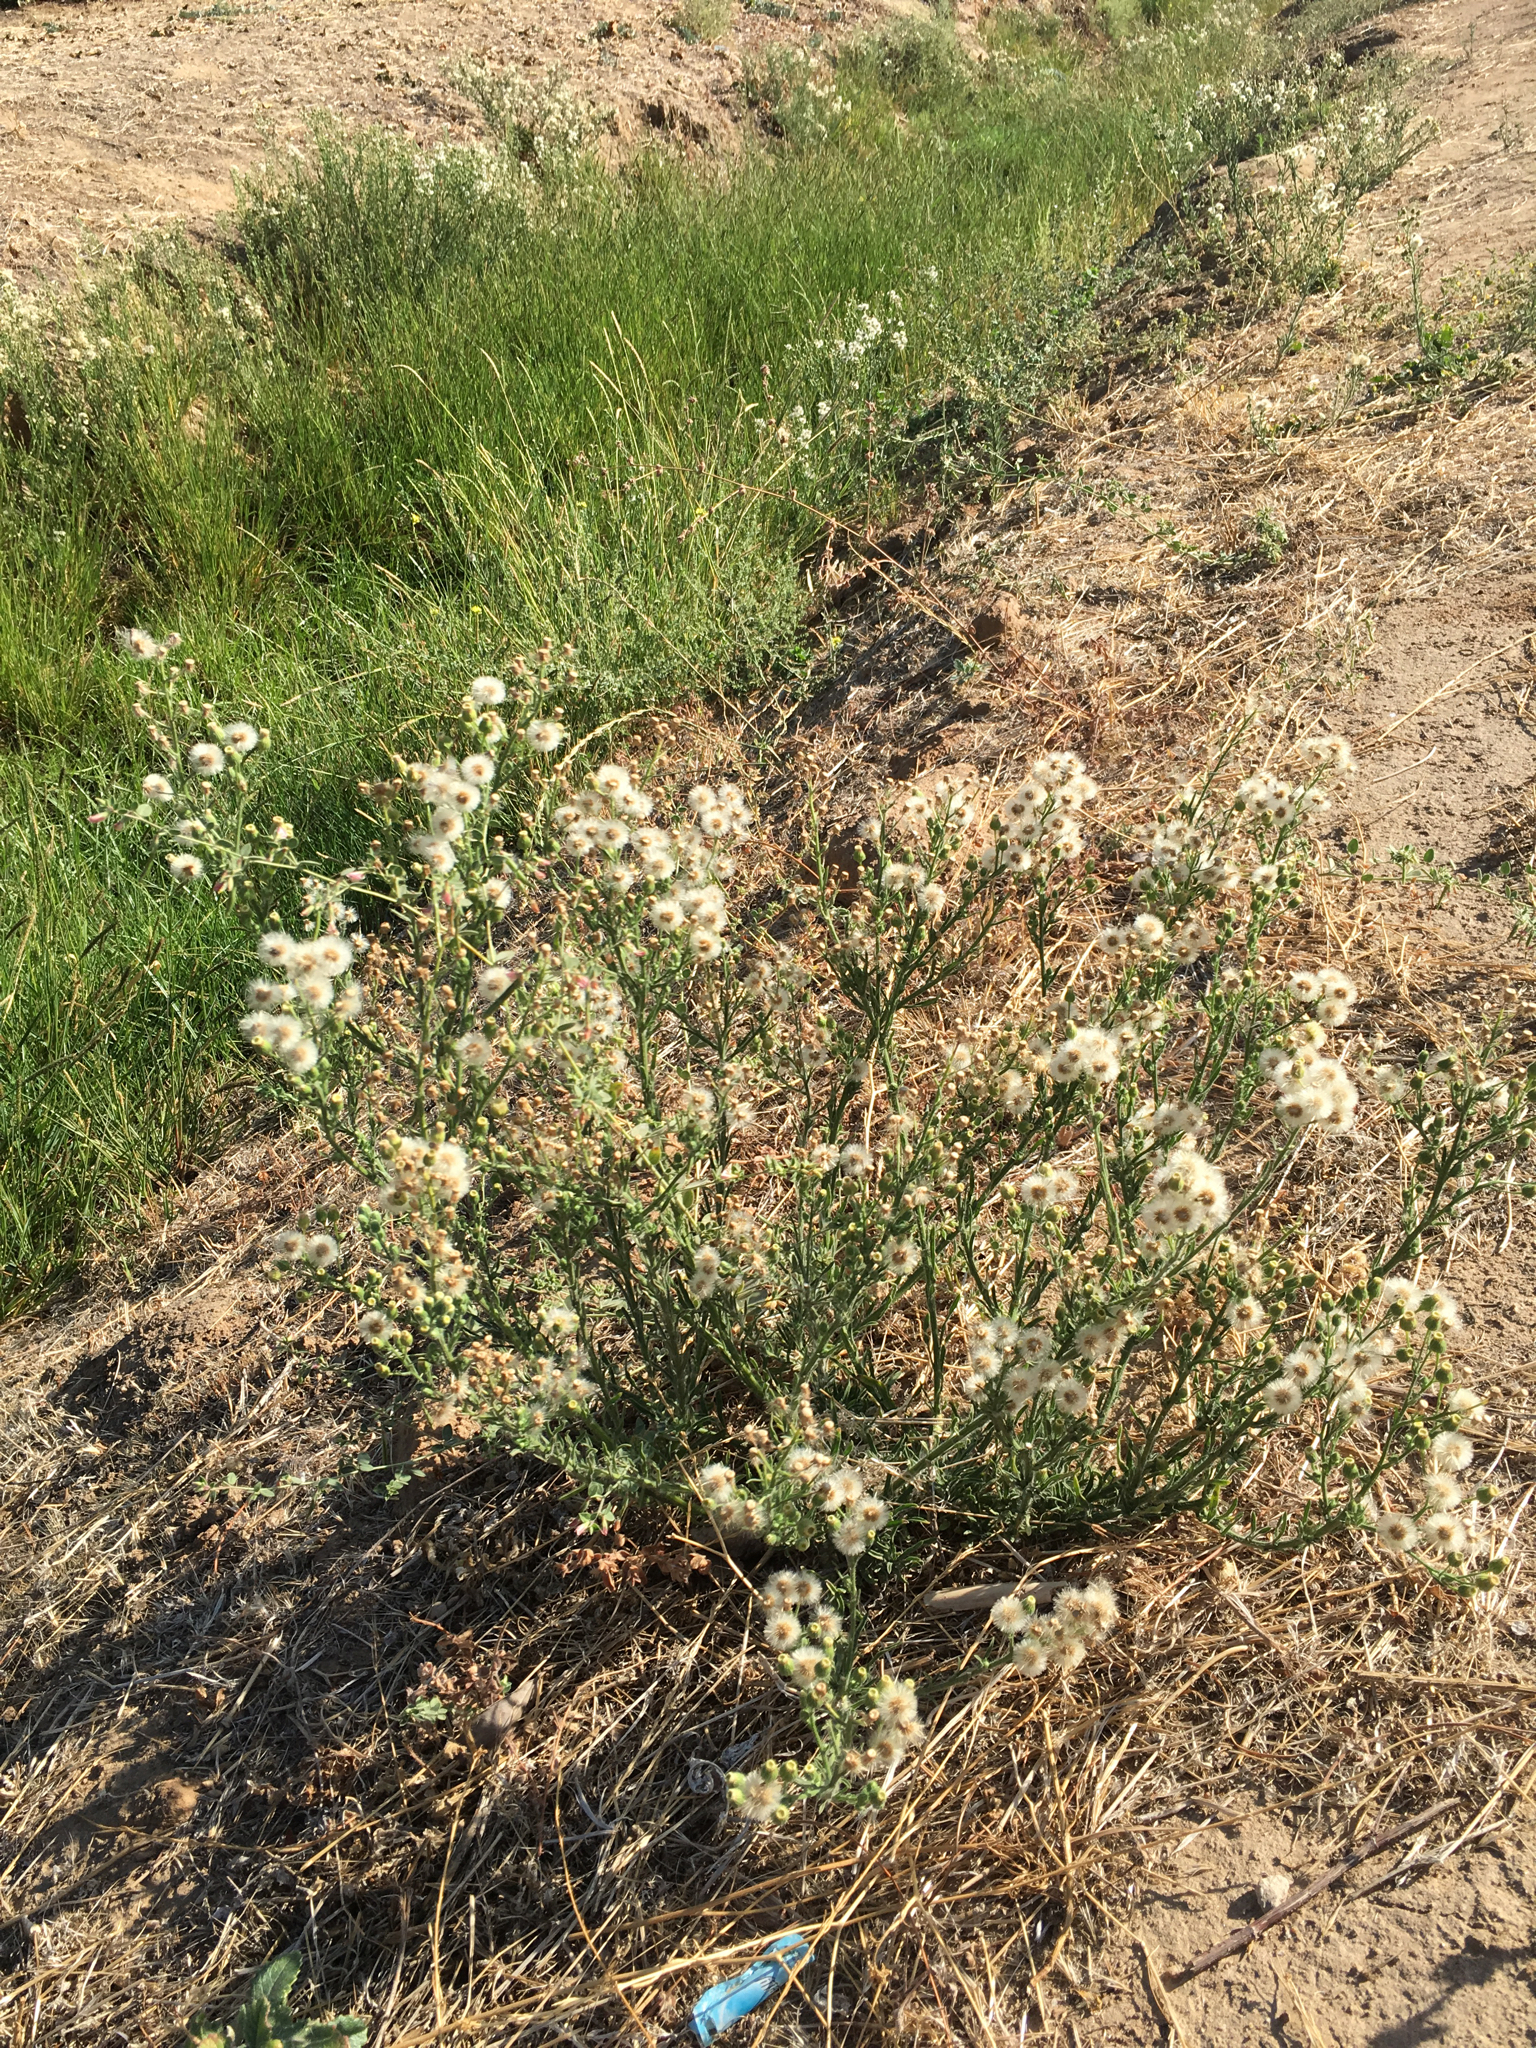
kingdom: Plantae
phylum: Tracheophyta
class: Magnoliopsida
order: Asterales
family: Asteraceae
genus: Erigeron
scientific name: Erigeron bonariensis
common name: Argentine fleabane
